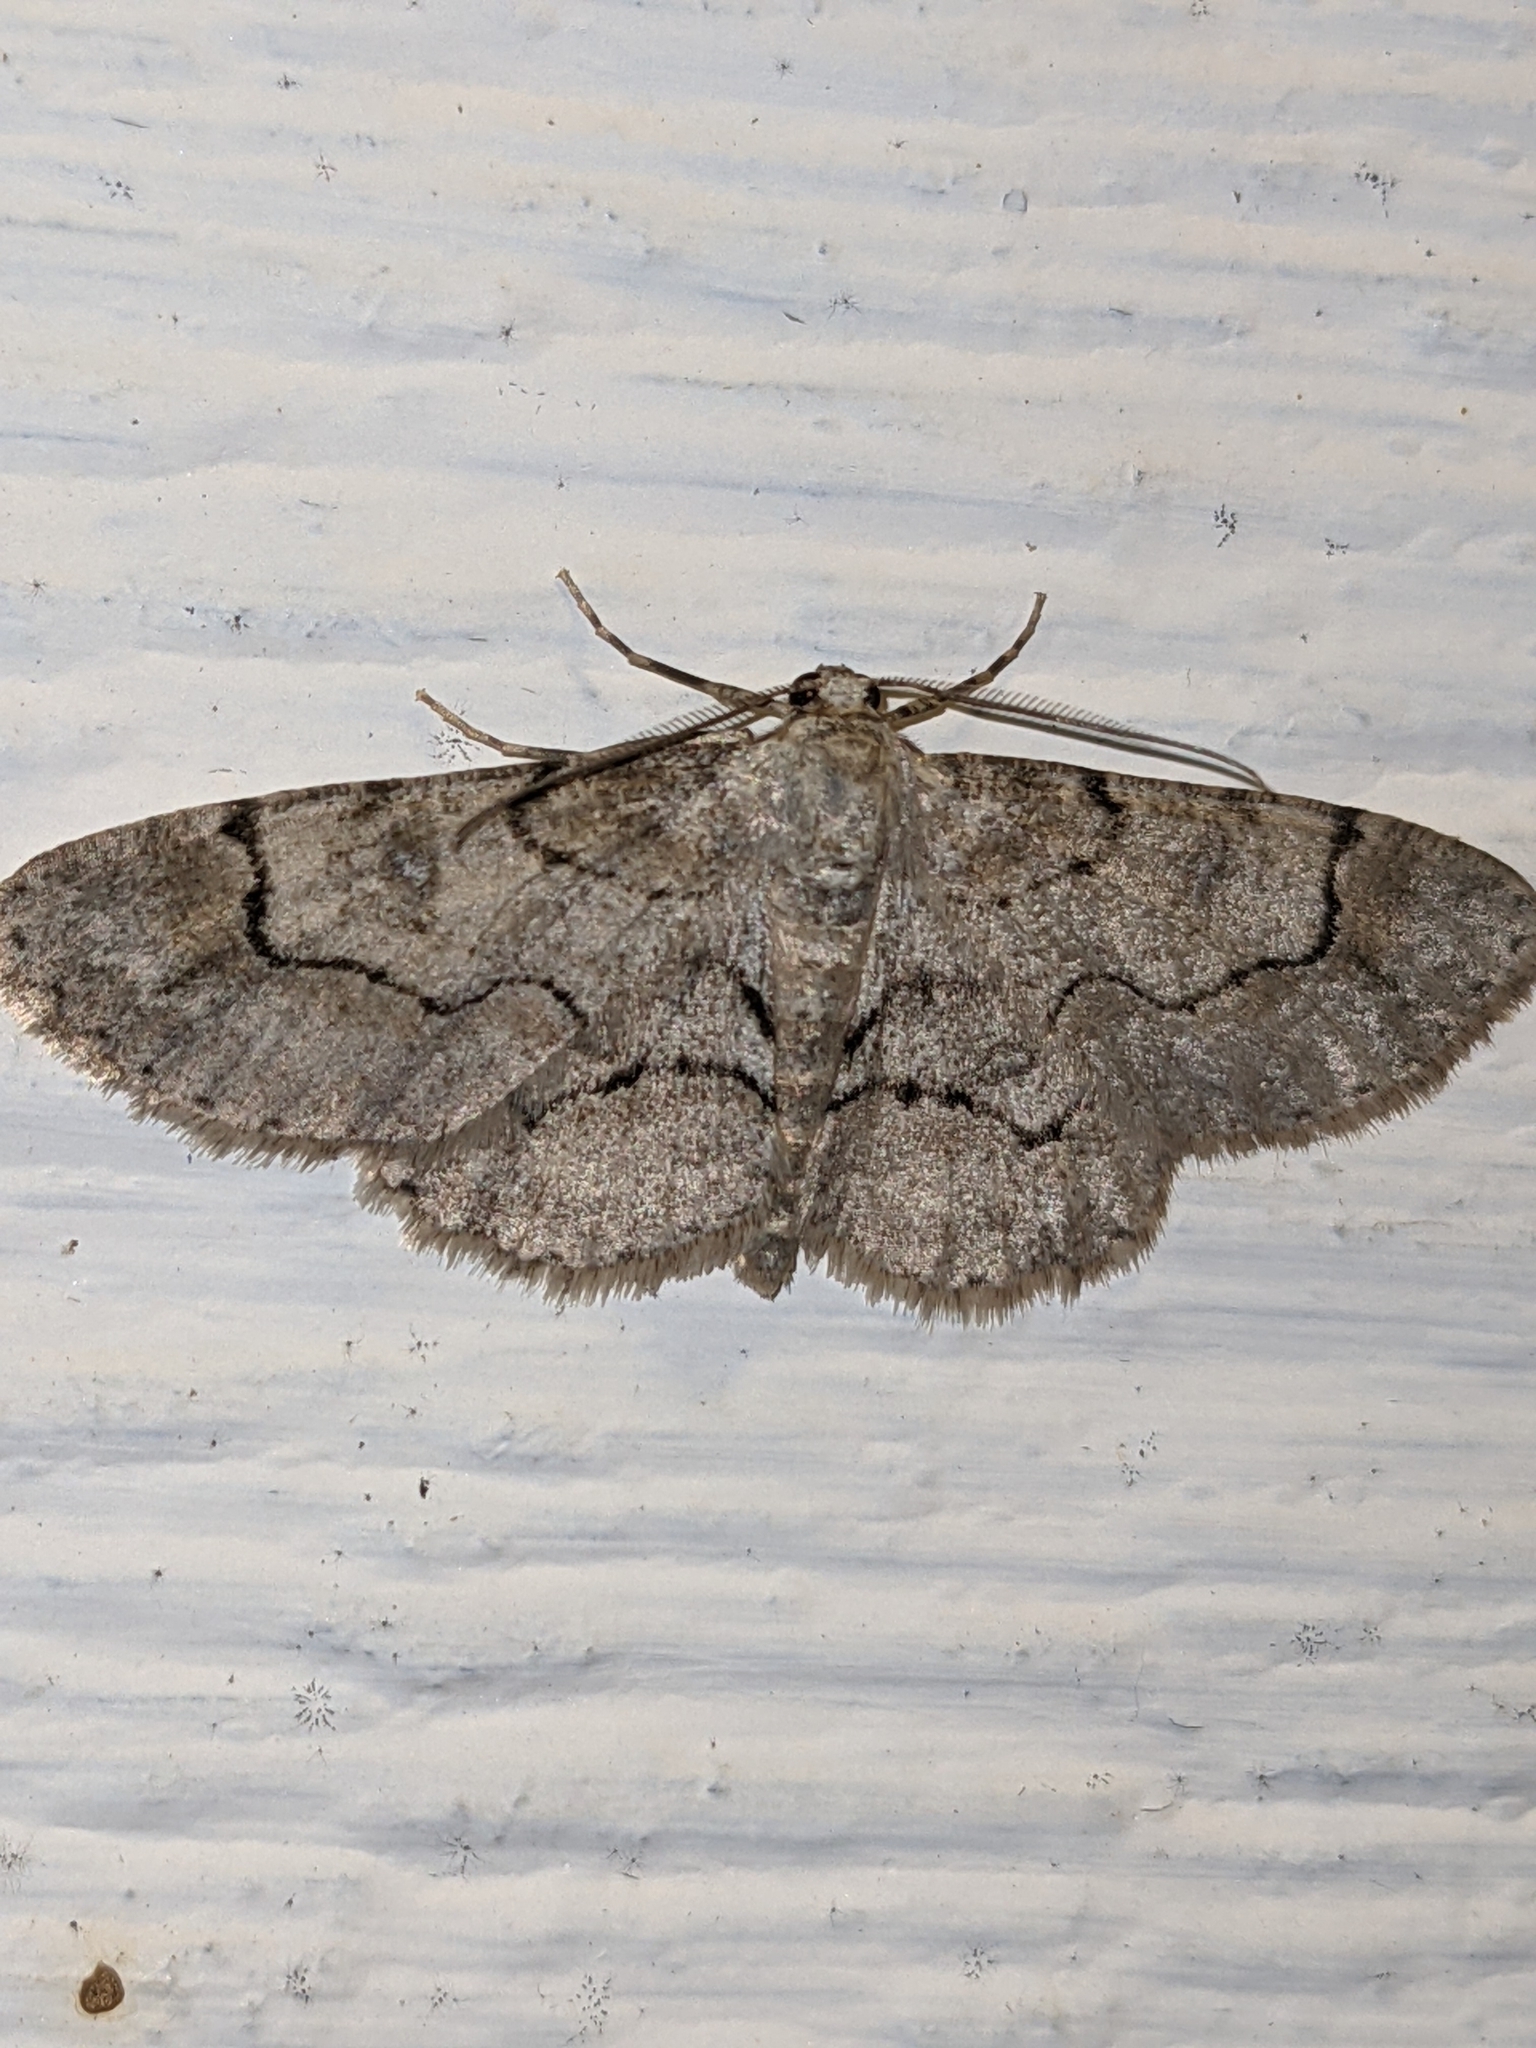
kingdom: Animalia
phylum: Arthropoda
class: Insecta
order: Lepidoptera
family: Geometridae
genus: Iridopsis
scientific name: Iridopsis larvaria
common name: Bent-line gray
